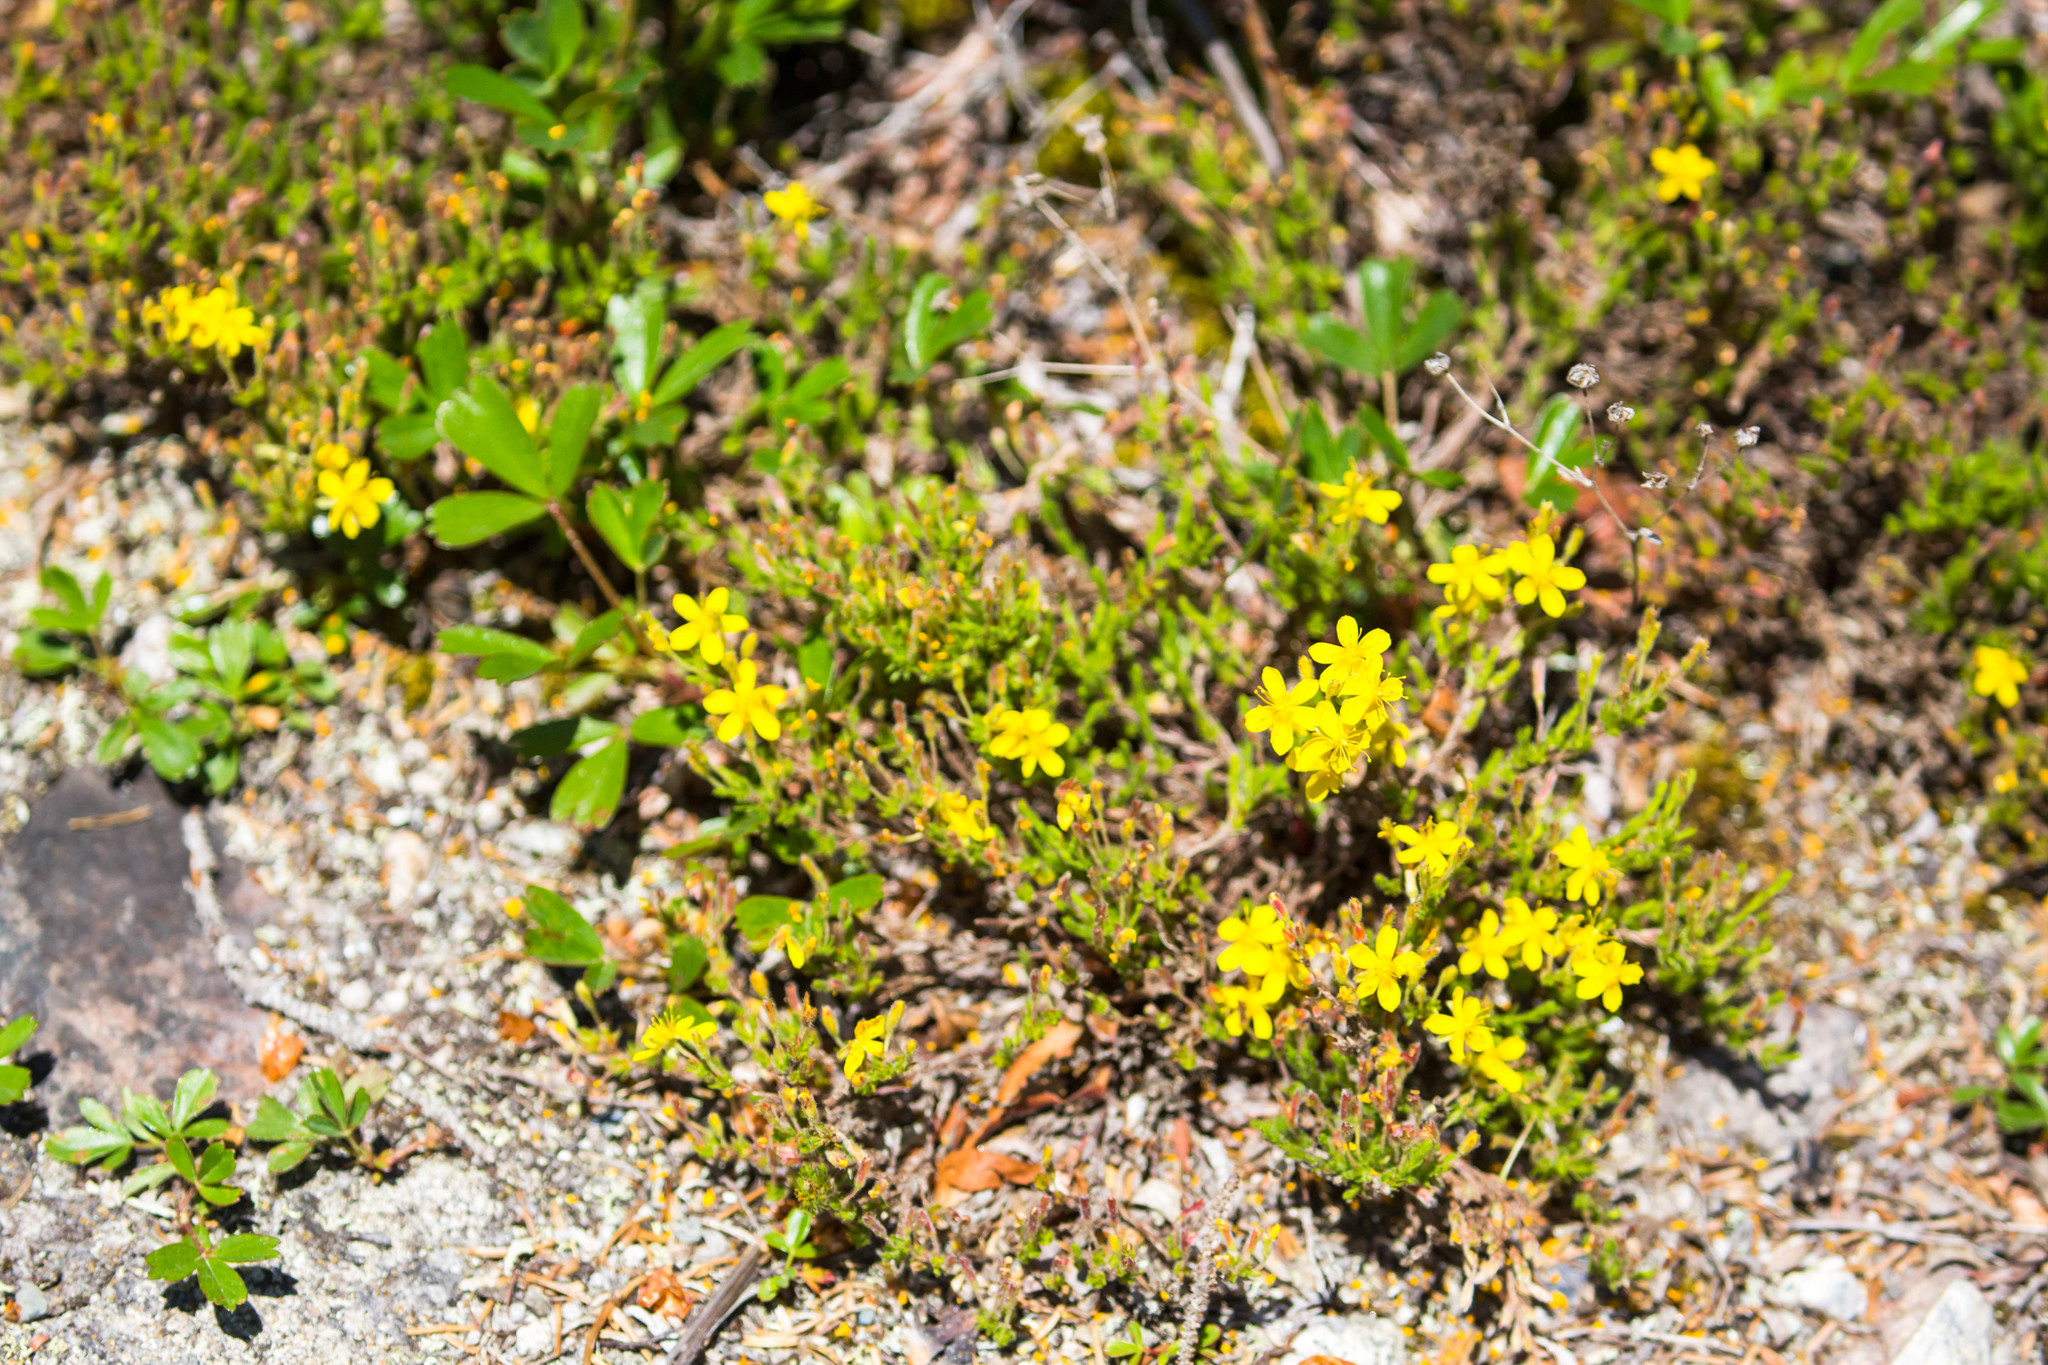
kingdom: Plantae
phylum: Tracheophyta
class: Magnoliopsida
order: Malvales
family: Cistaceae
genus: Hudsonia
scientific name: Hudsonia ericoides
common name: Golden-heather
